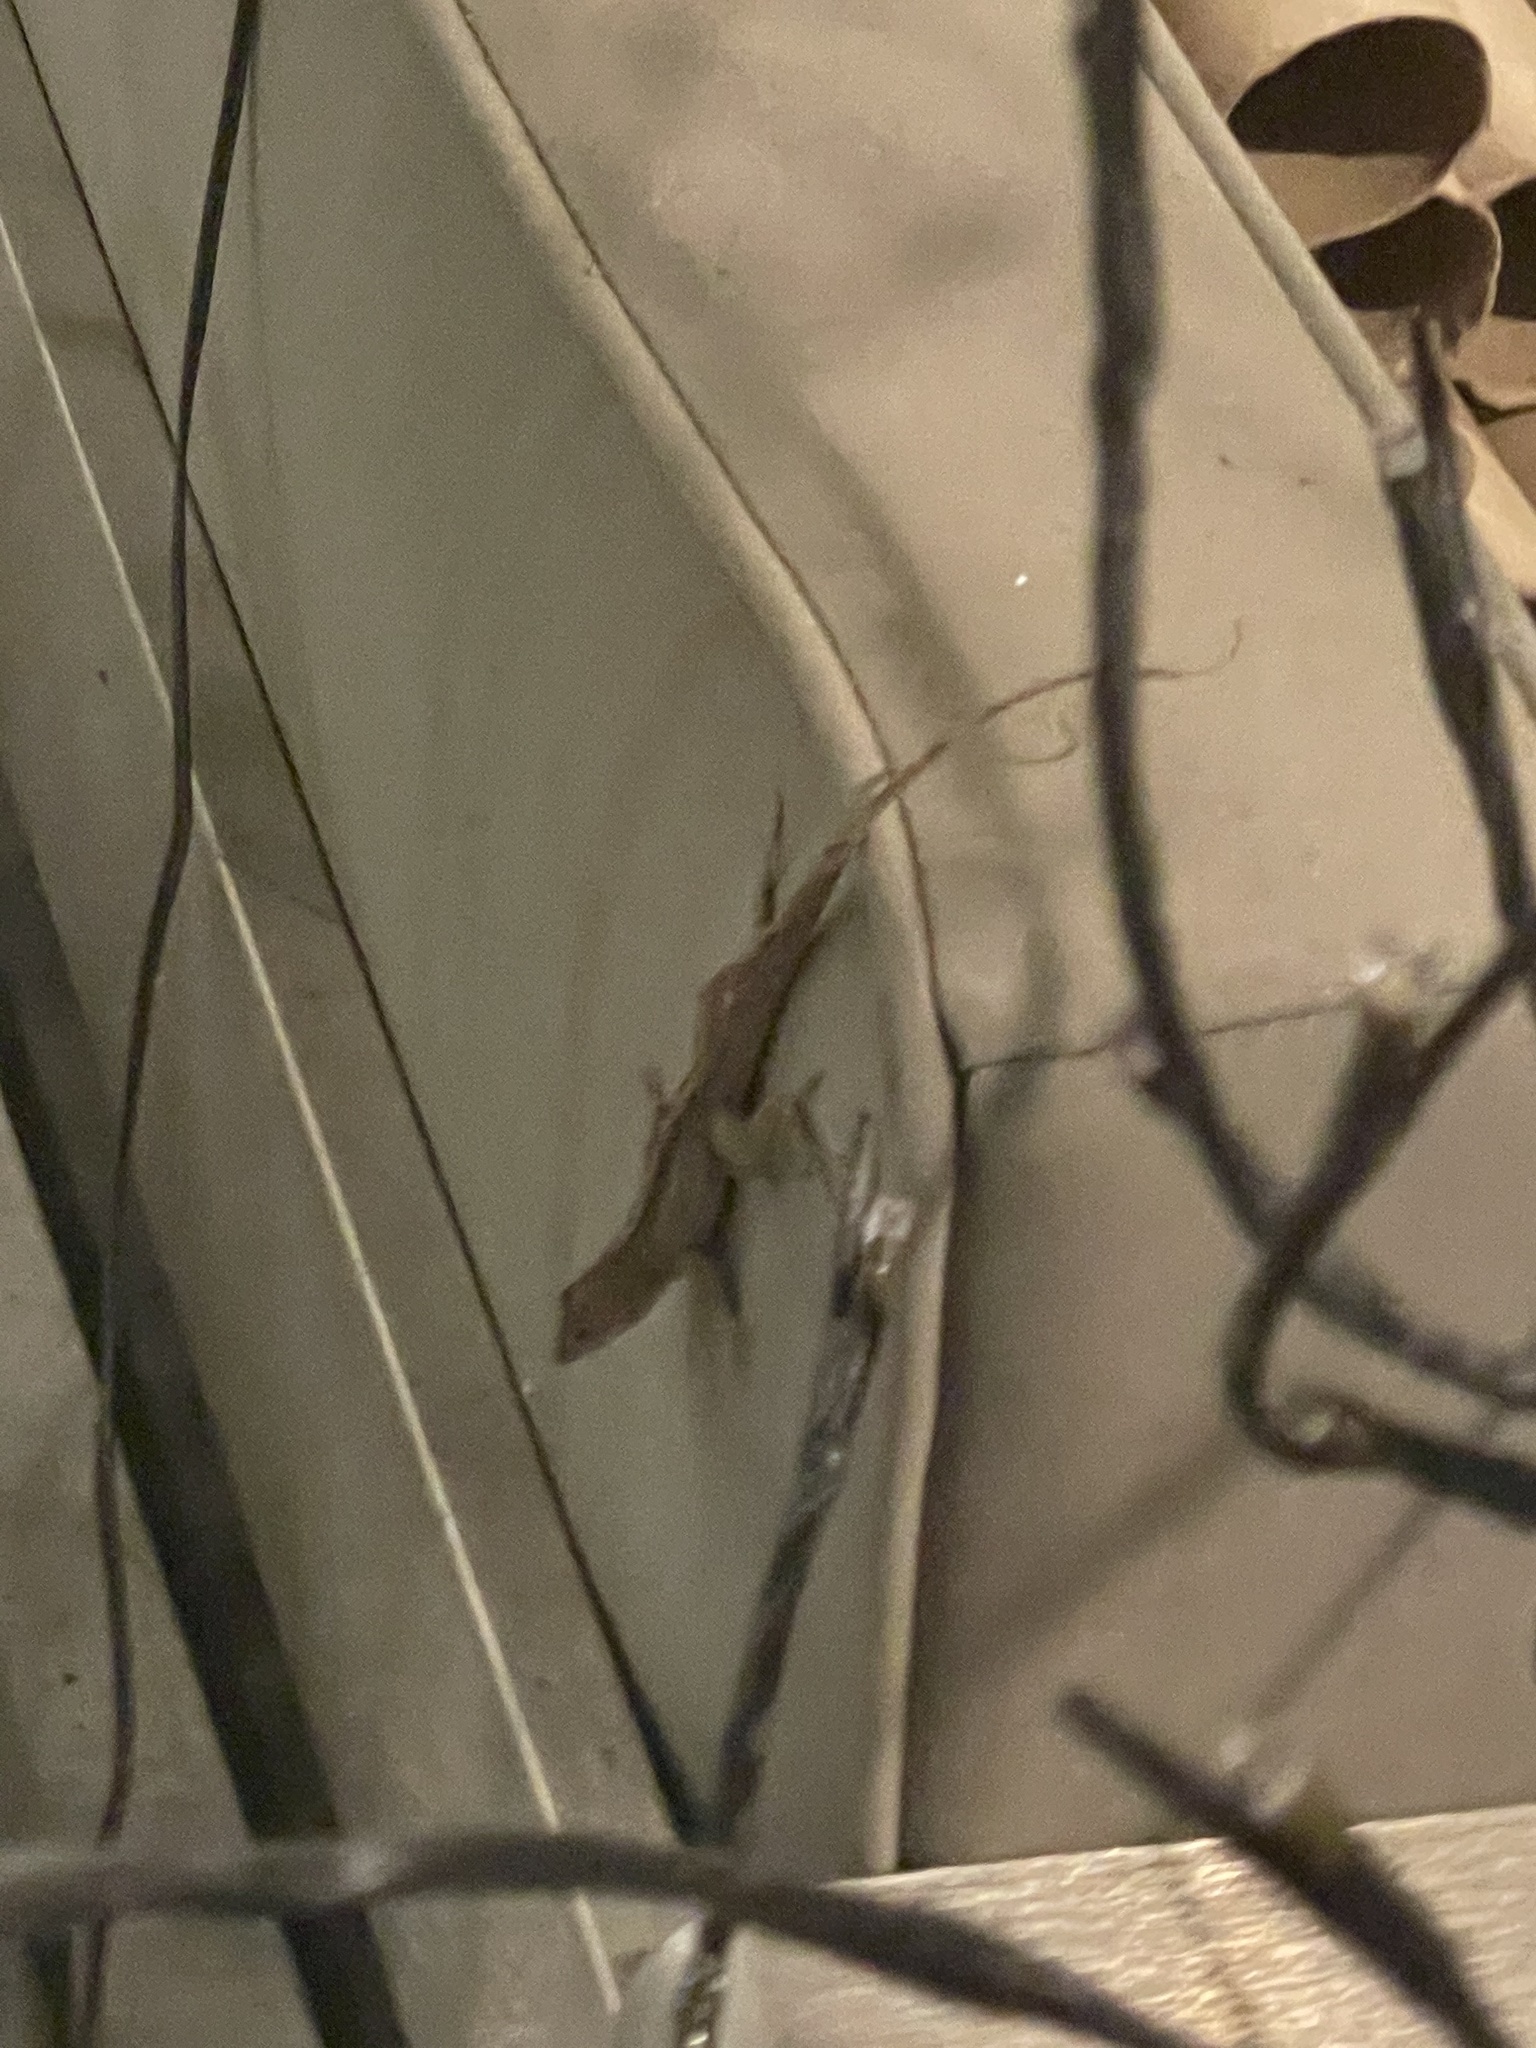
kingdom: Animalia
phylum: Chordata
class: Squamata
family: Dactyloidae
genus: Anolis
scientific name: Anolis sagrei
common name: Brown anole
